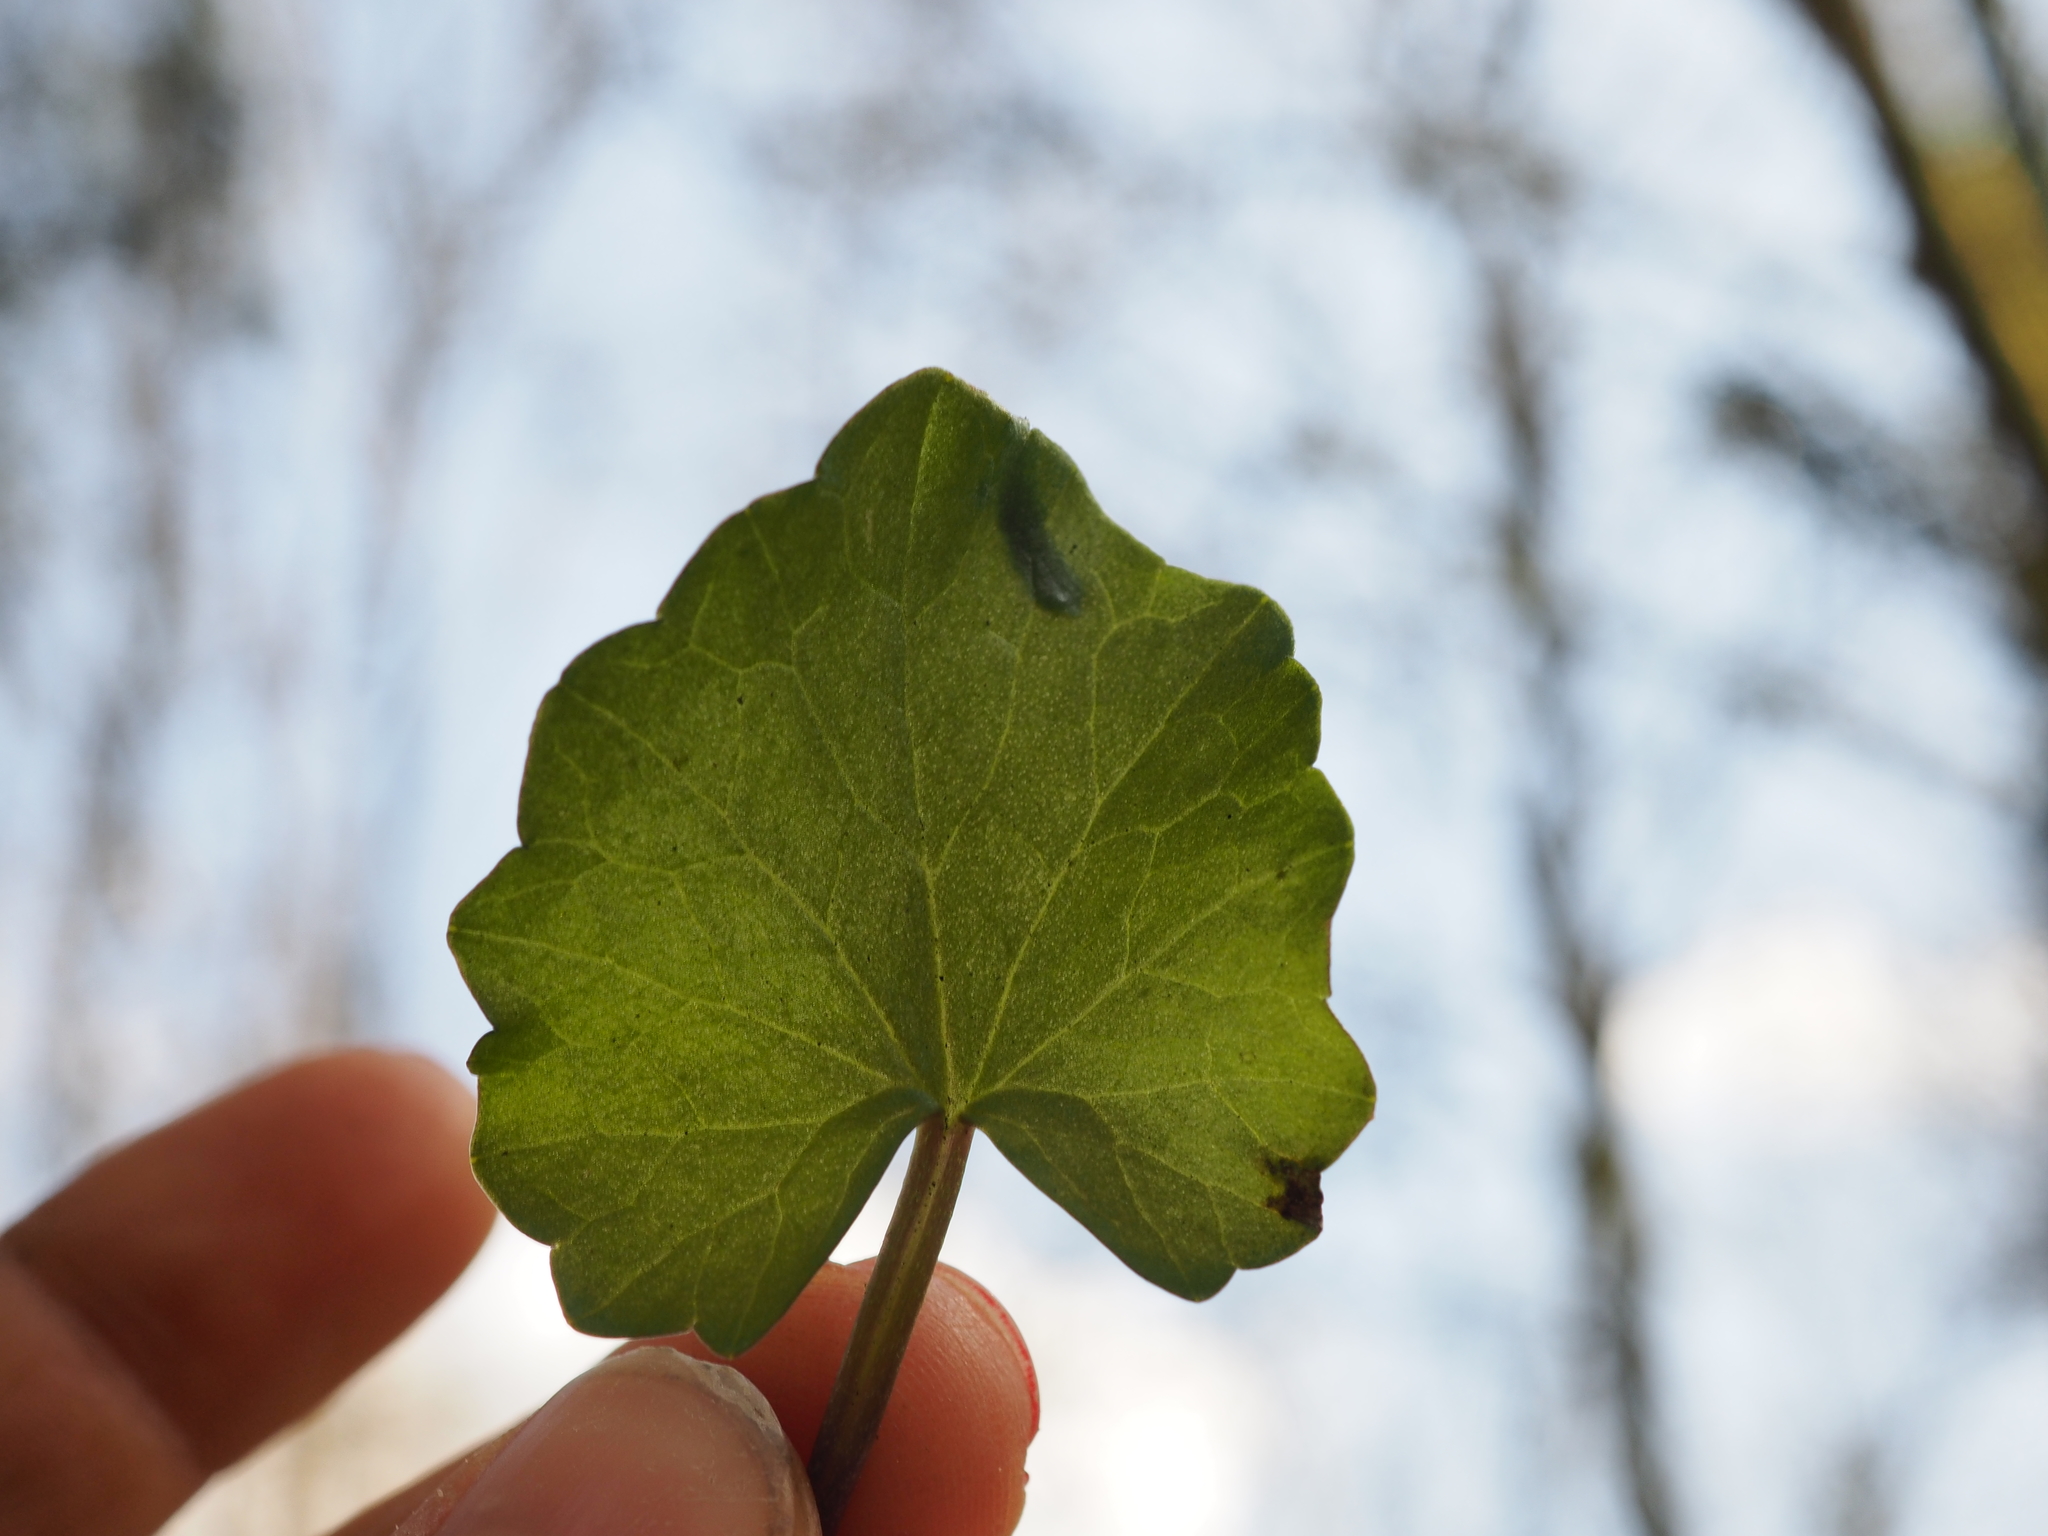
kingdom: Plantae
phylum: Tracheophyta
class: Magnoliopsida
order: Ranunculales
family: Ranunculaceae
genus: Ficaria
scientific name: Ficaria verna
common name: Lesser celandine
